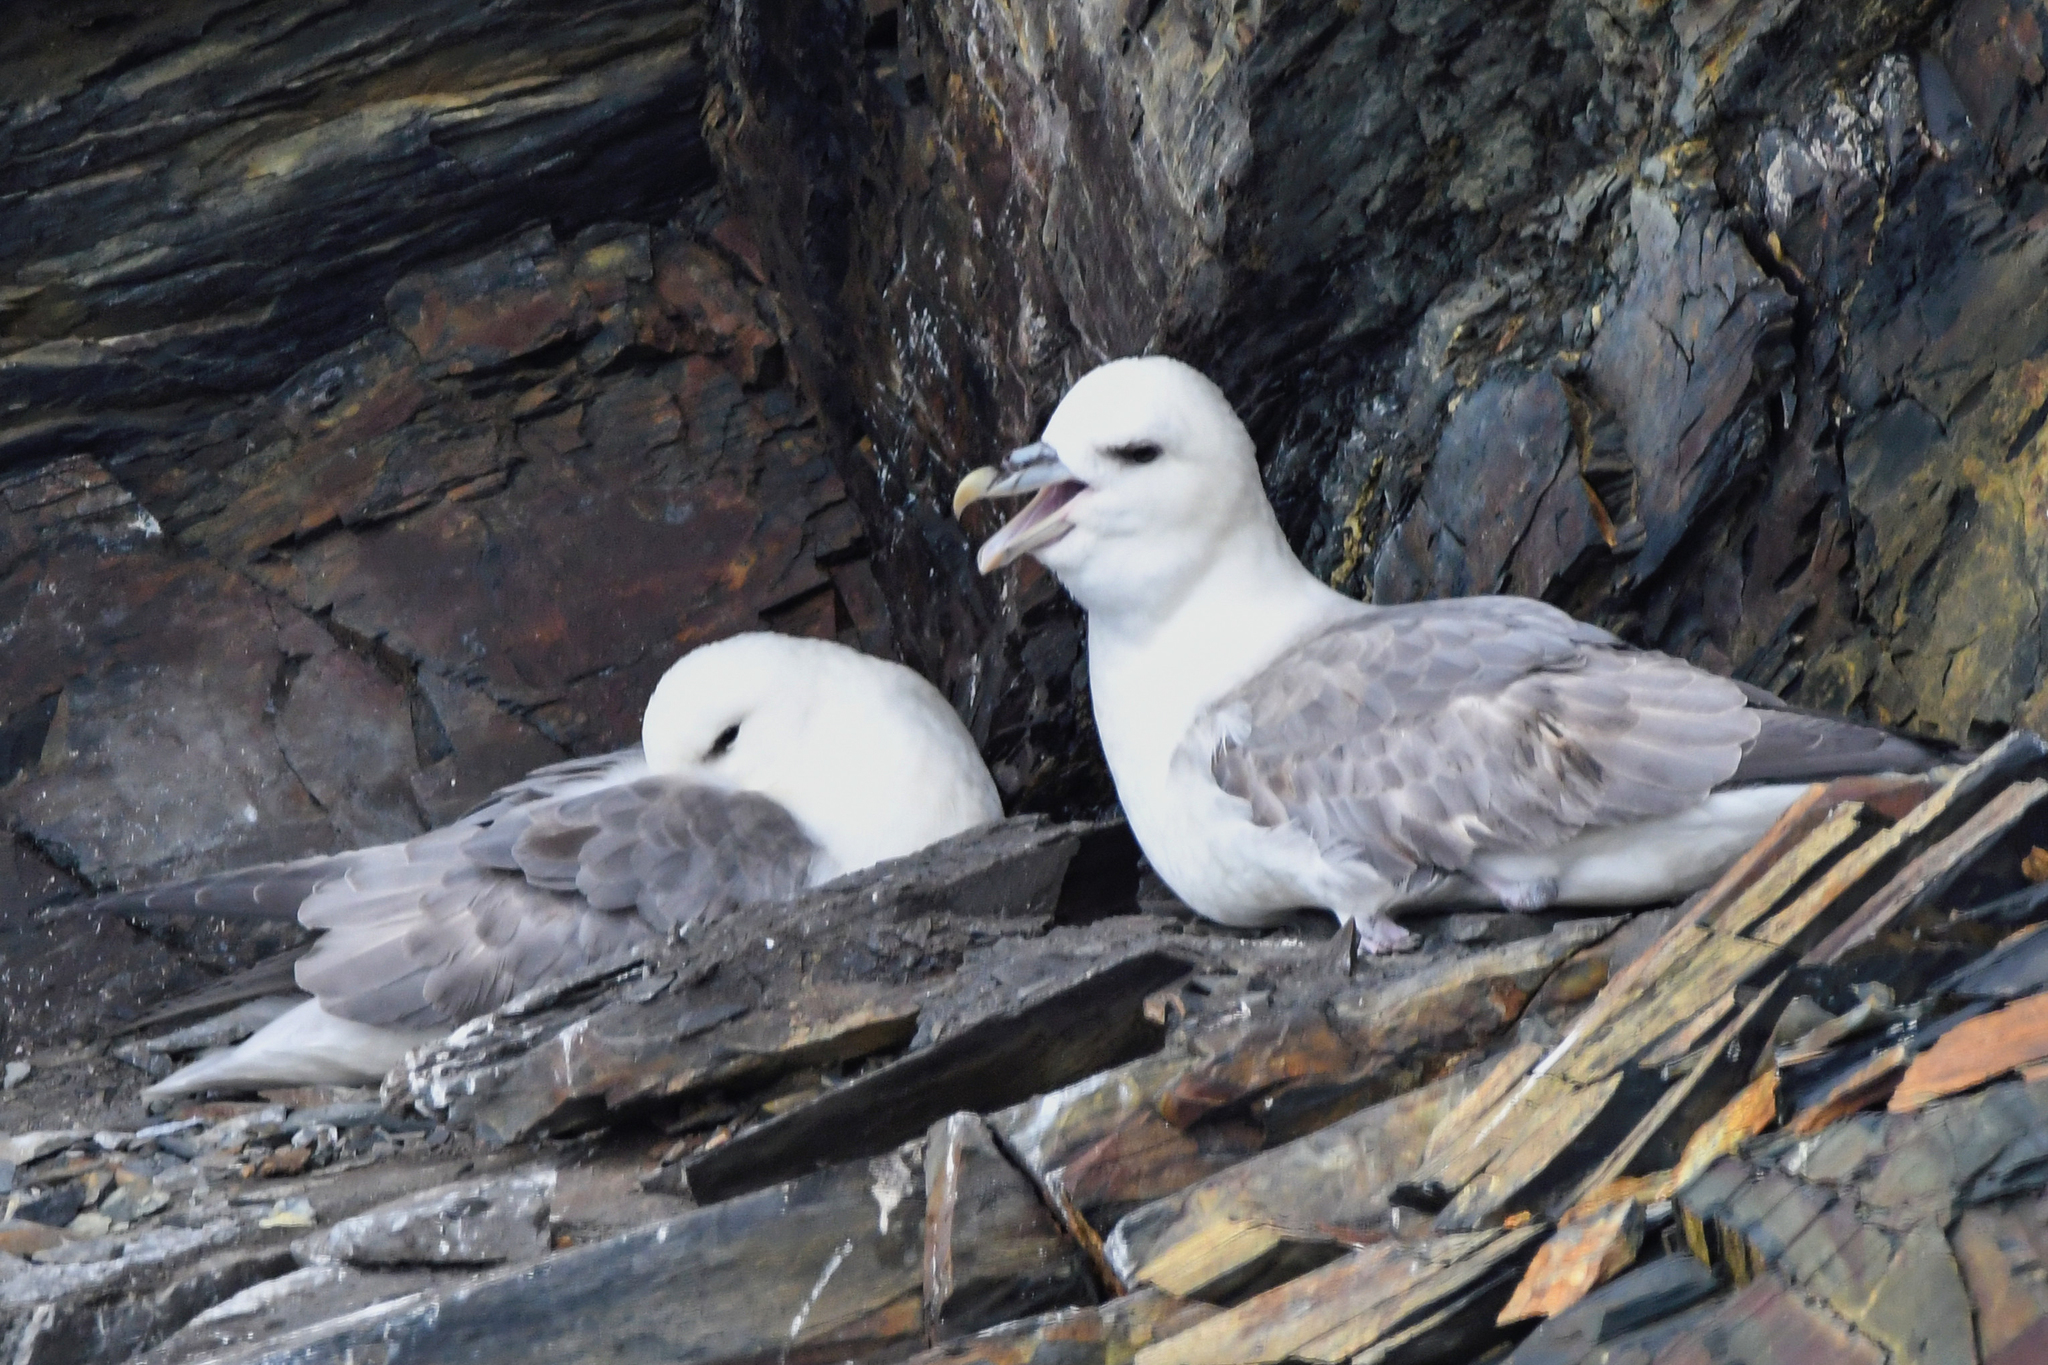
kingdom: Animalia
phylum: Chordata
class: Aves
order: Procellariiformes
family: Procellariidae
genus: Fulmarus
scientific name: Fulmarus glacialis
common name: Northern fulmar
